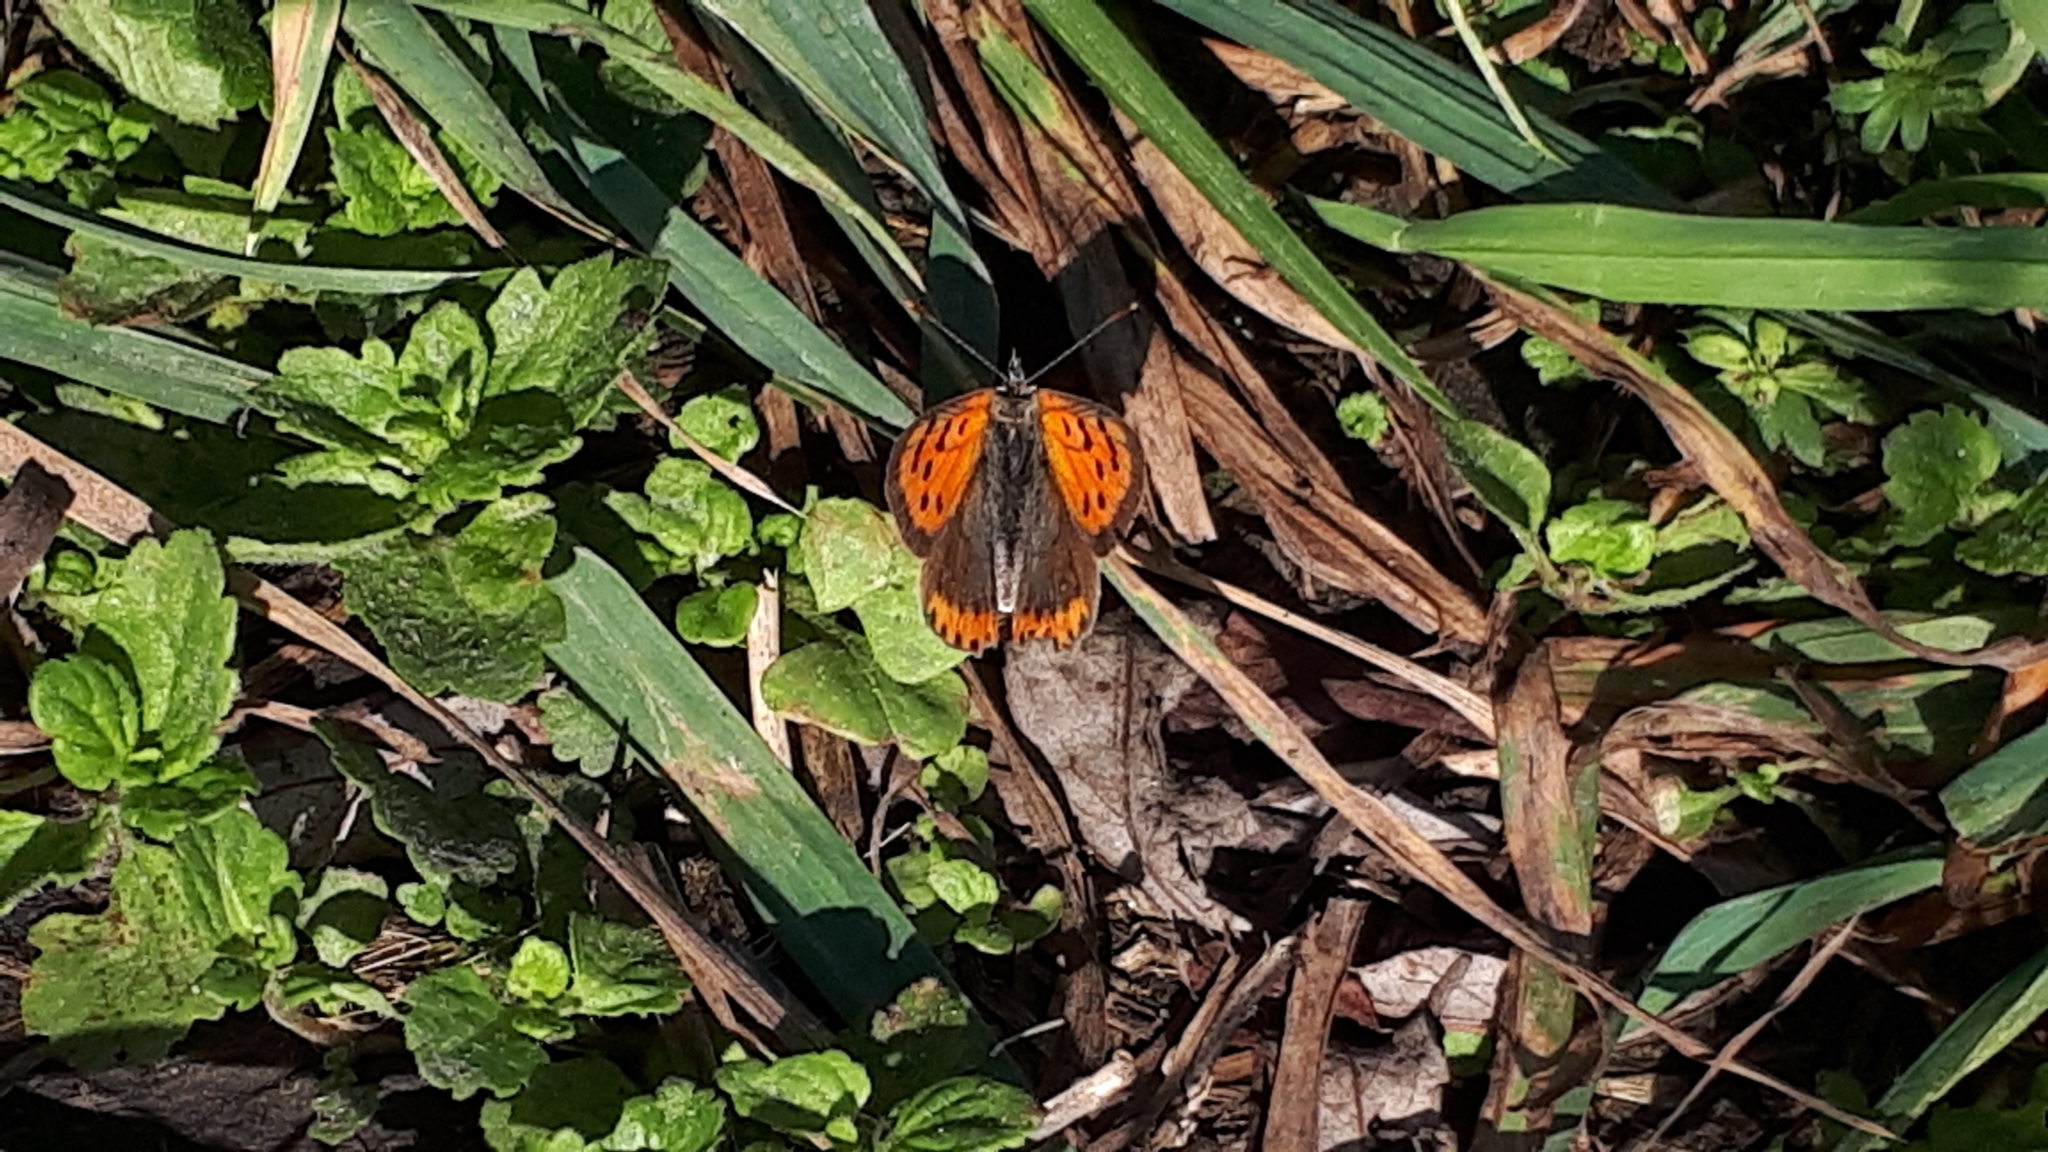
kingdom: Animalia
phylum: Arthropoda
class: Insecta
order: Lepidoptera
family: Lycaenidae
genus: Lycaena
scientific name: Lycaena phlaeas
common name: Small copper
